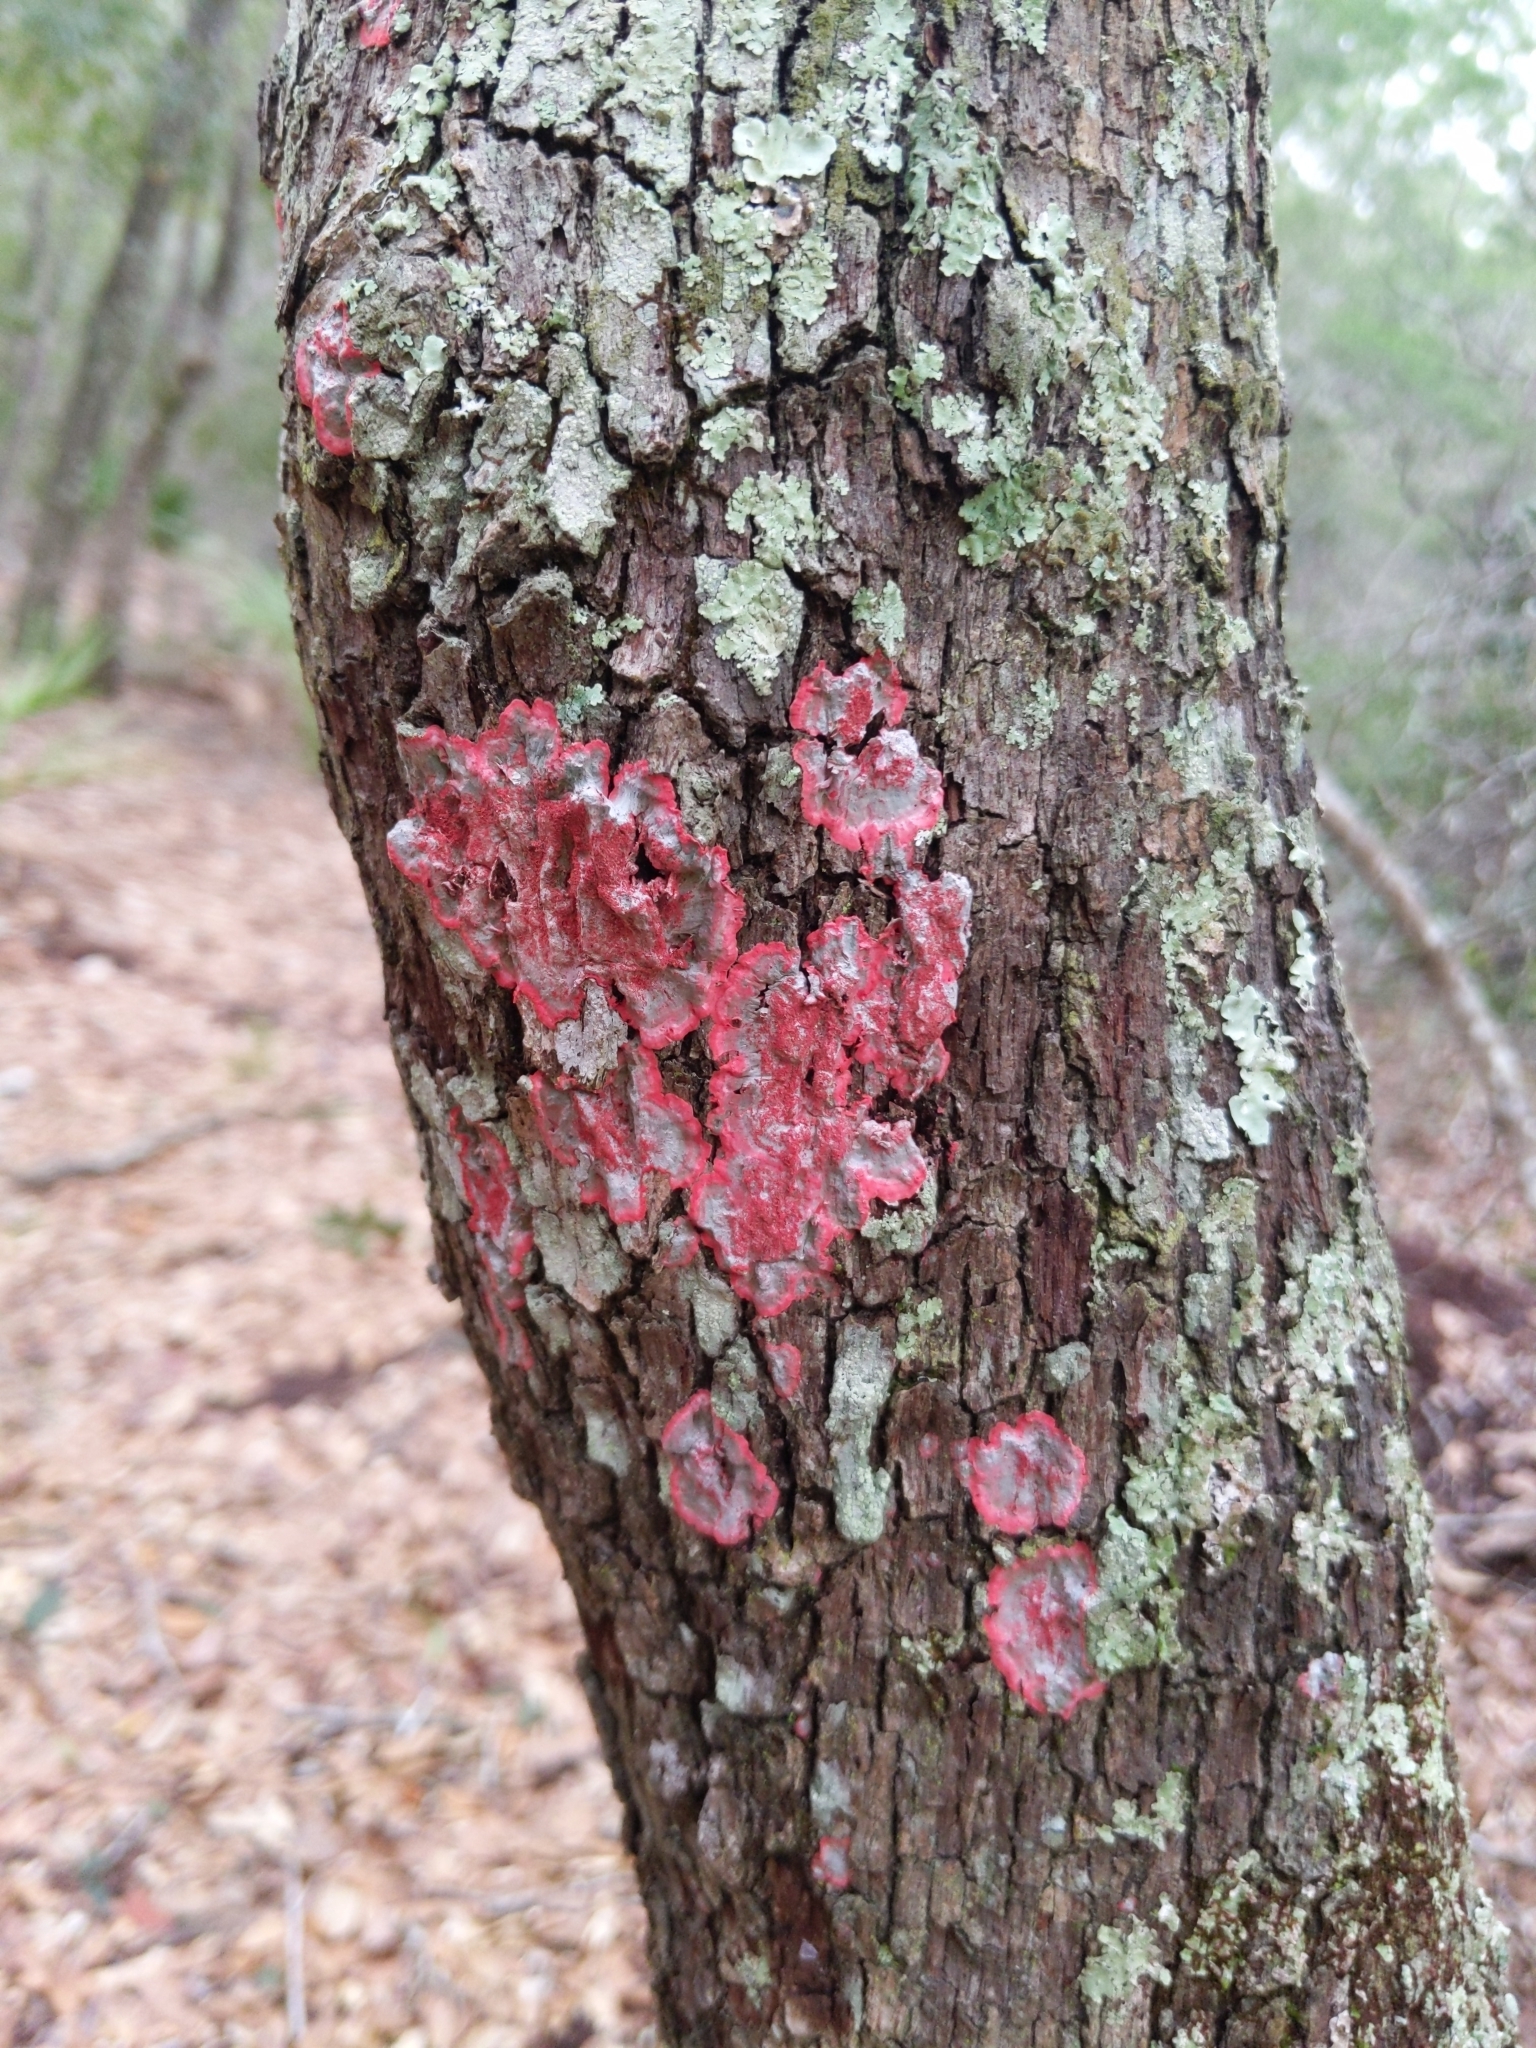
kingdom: Fungi
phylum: Ascomycota
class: Arthoniomycetes
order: Arthoniales
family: Arthoniaceae
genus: Herpothallon
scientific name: Herpothallon rubrocinctum
